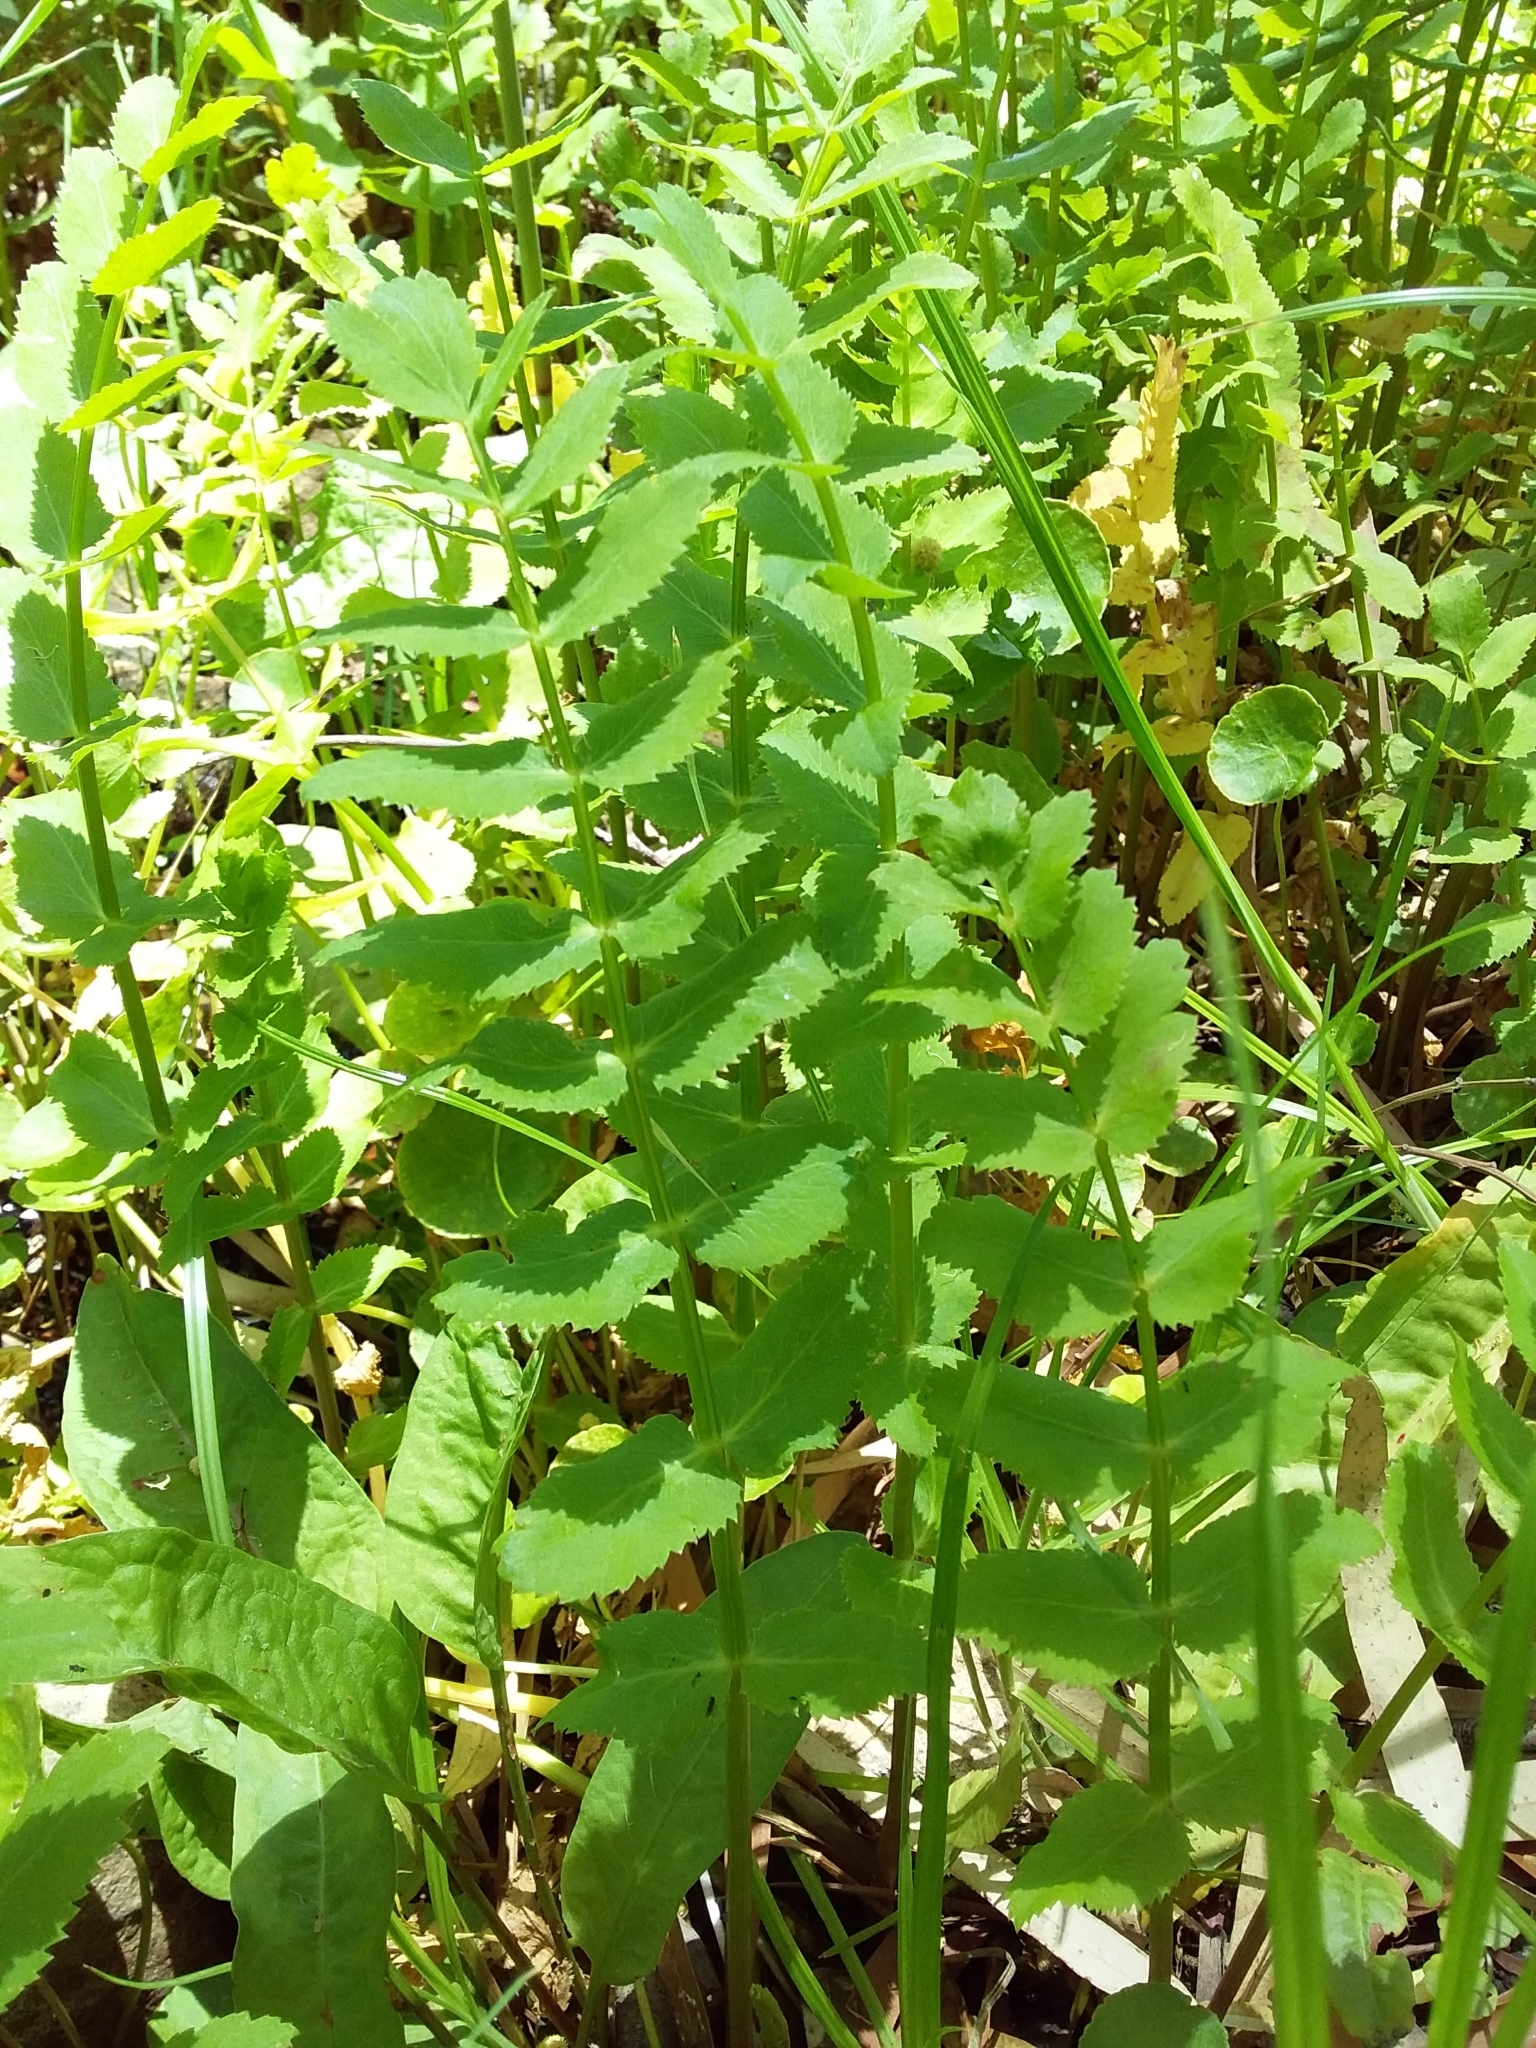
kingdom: Plantae
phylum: Tracheophyta
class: Magnoliopsida
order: Apiales
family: Apiaceae
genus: Berula
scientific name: Berula erecta
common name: Lesser water-parsnip
